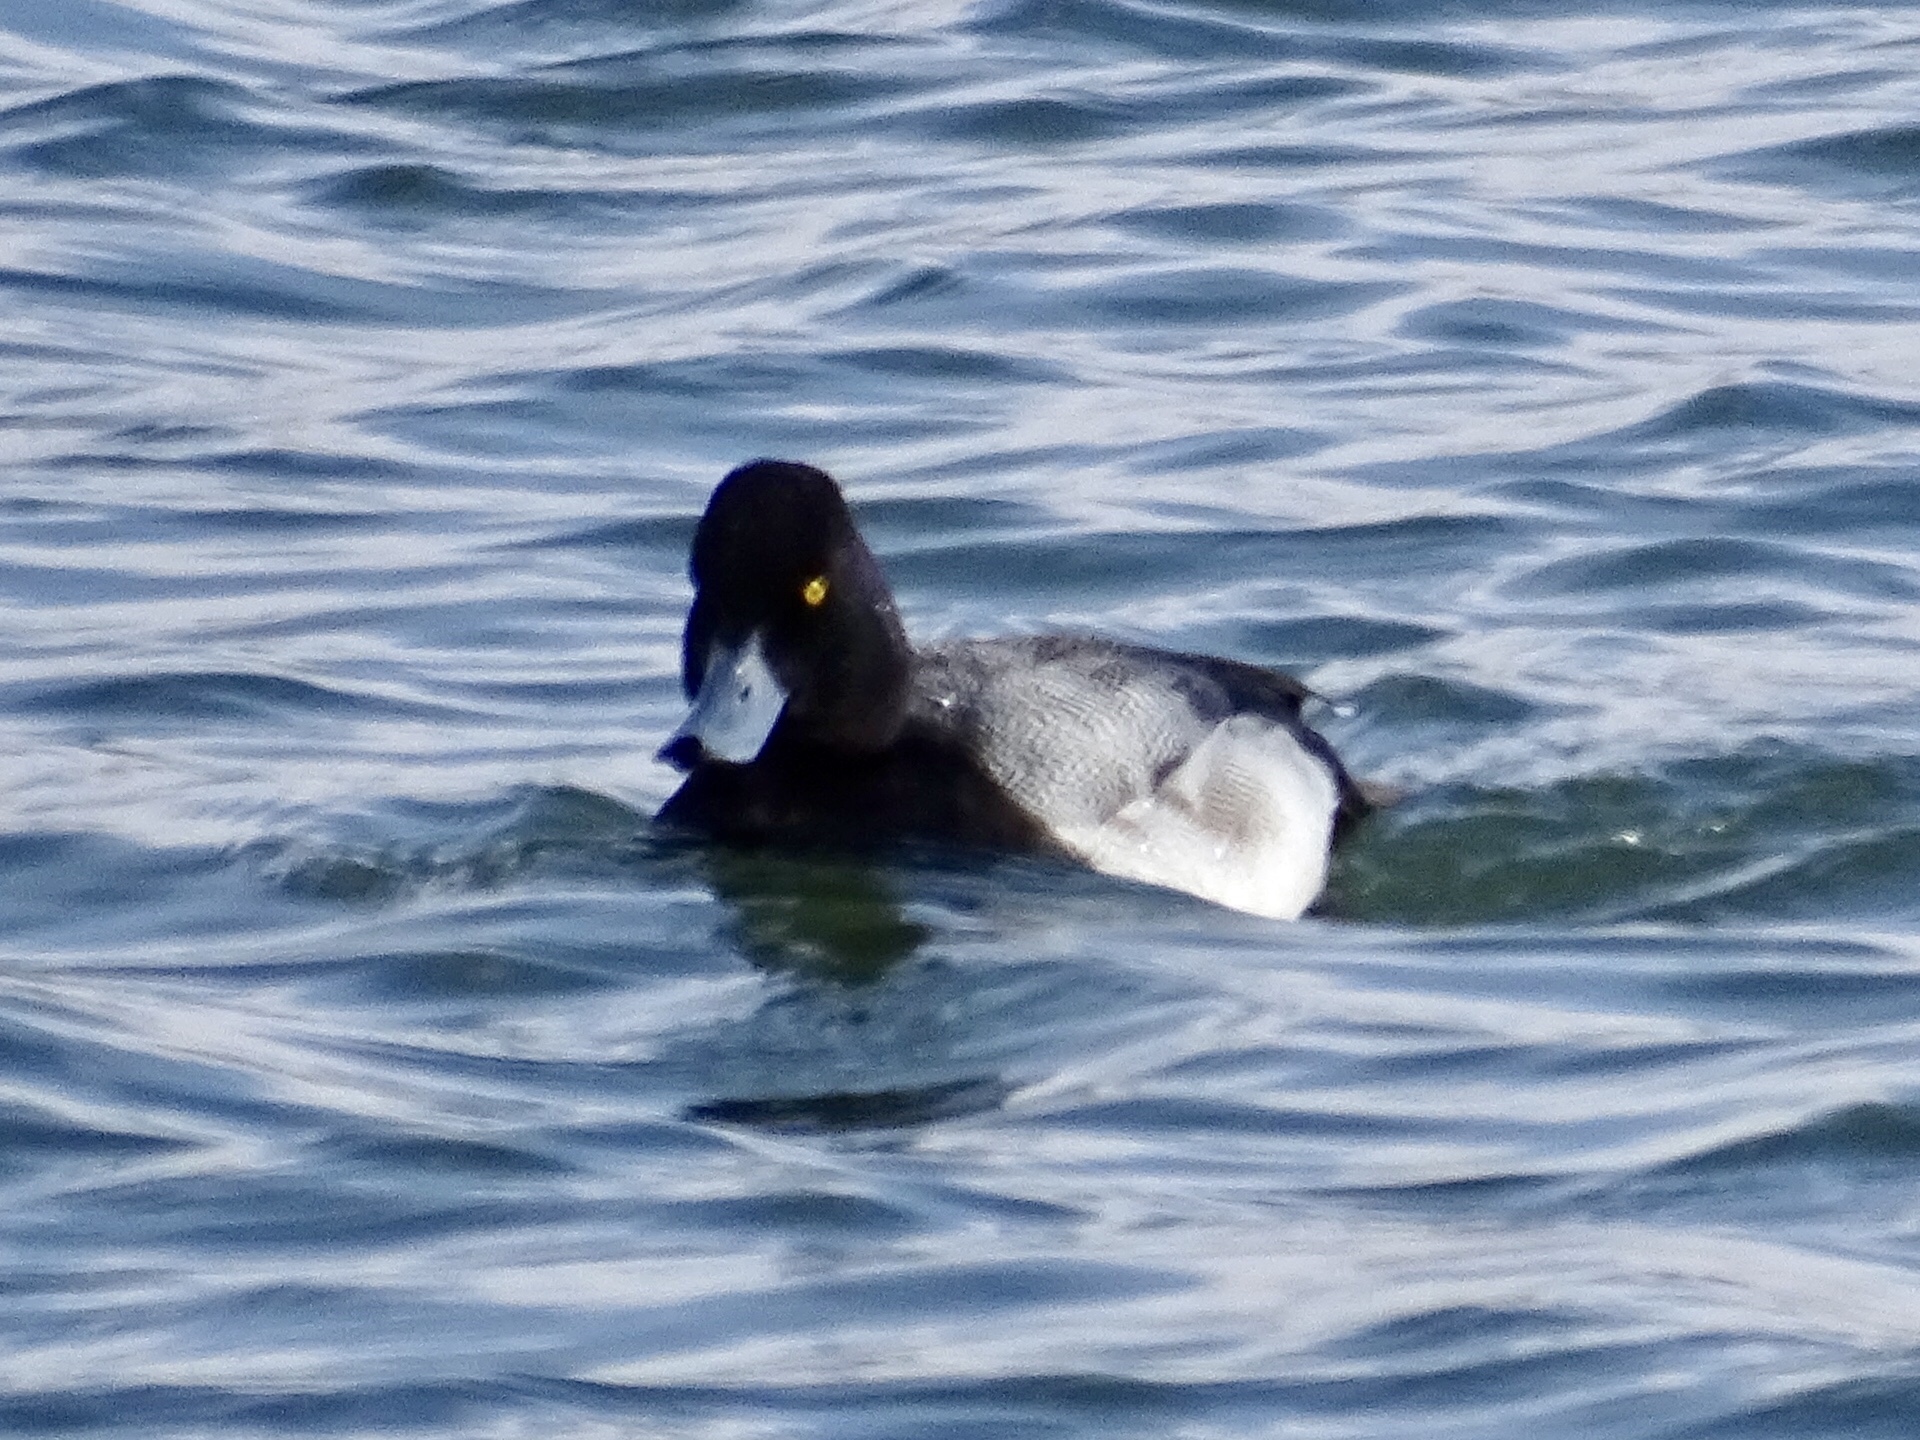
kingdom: Animalia
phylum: Chordata
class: Aves
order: Anseriformes
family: Anatidae
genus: Aythya
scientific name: Aythya affinis
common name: Lesser scaup
